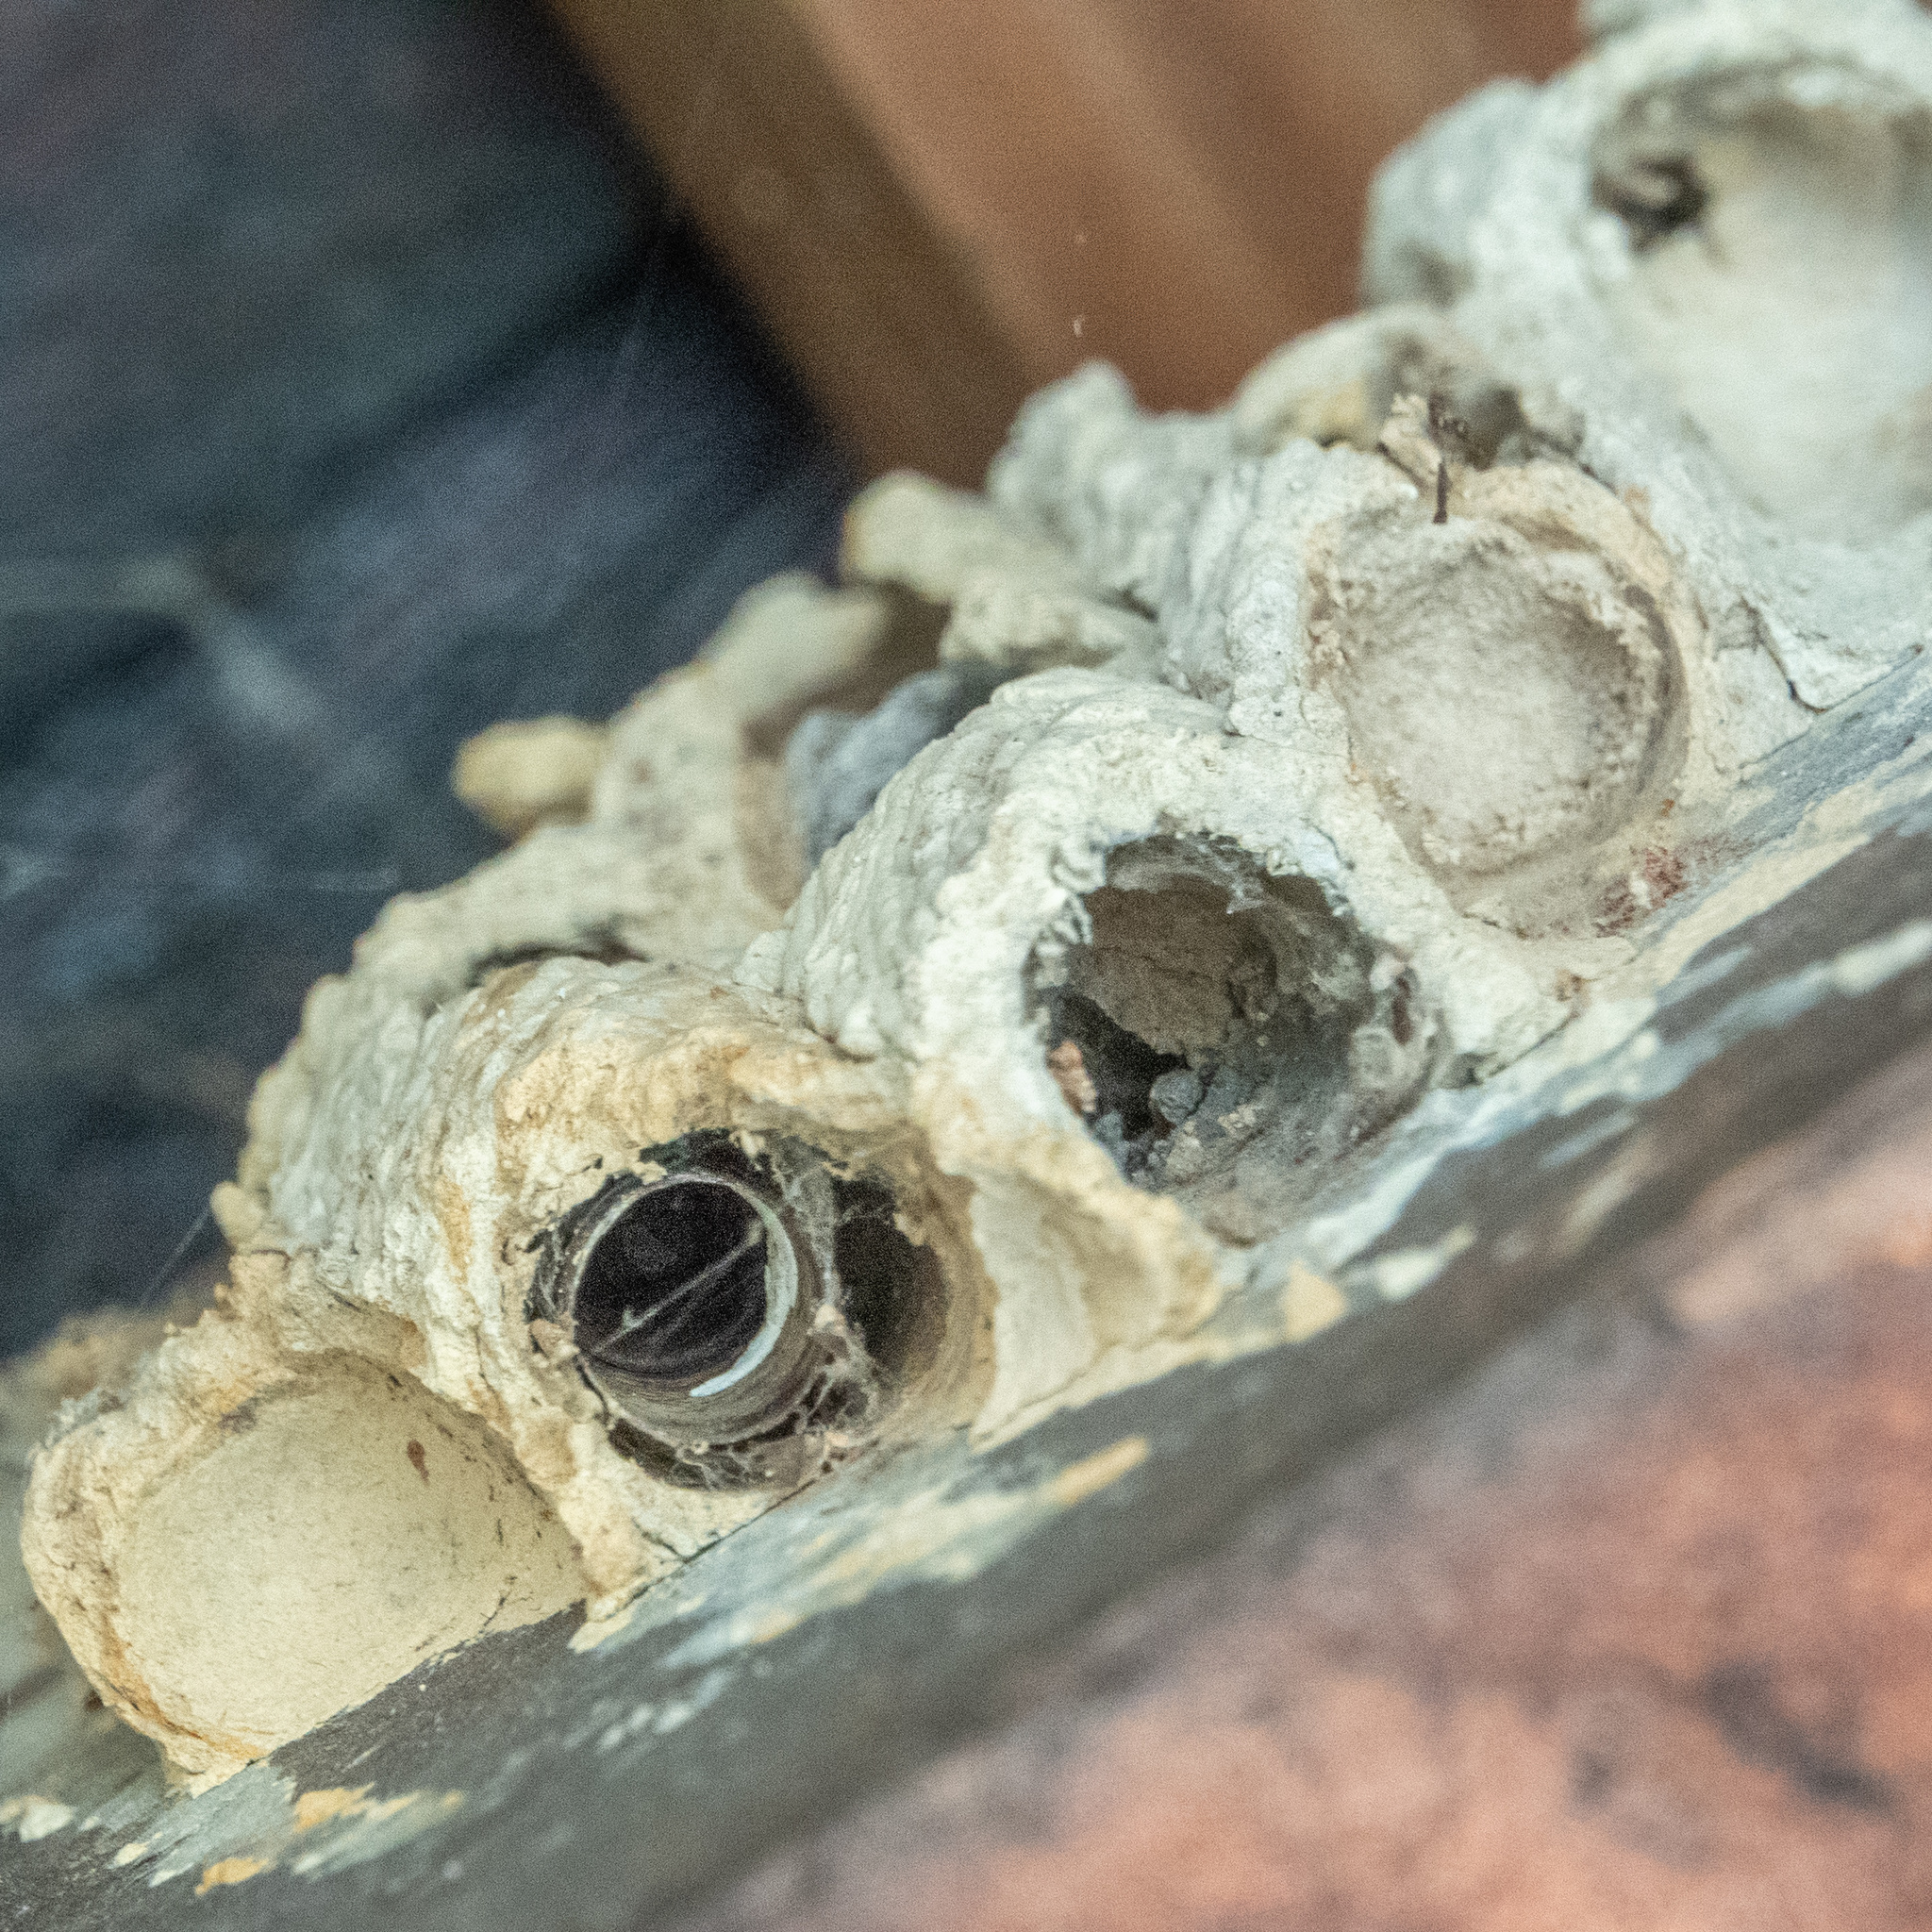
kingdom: Animalia
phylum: Arthropoda
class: Insecta
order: Hymenoptera
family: Crabronidae
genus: Trypoxylon
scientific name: Trypoxylon politum
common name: Organ-pipe mud-dauber wasp
